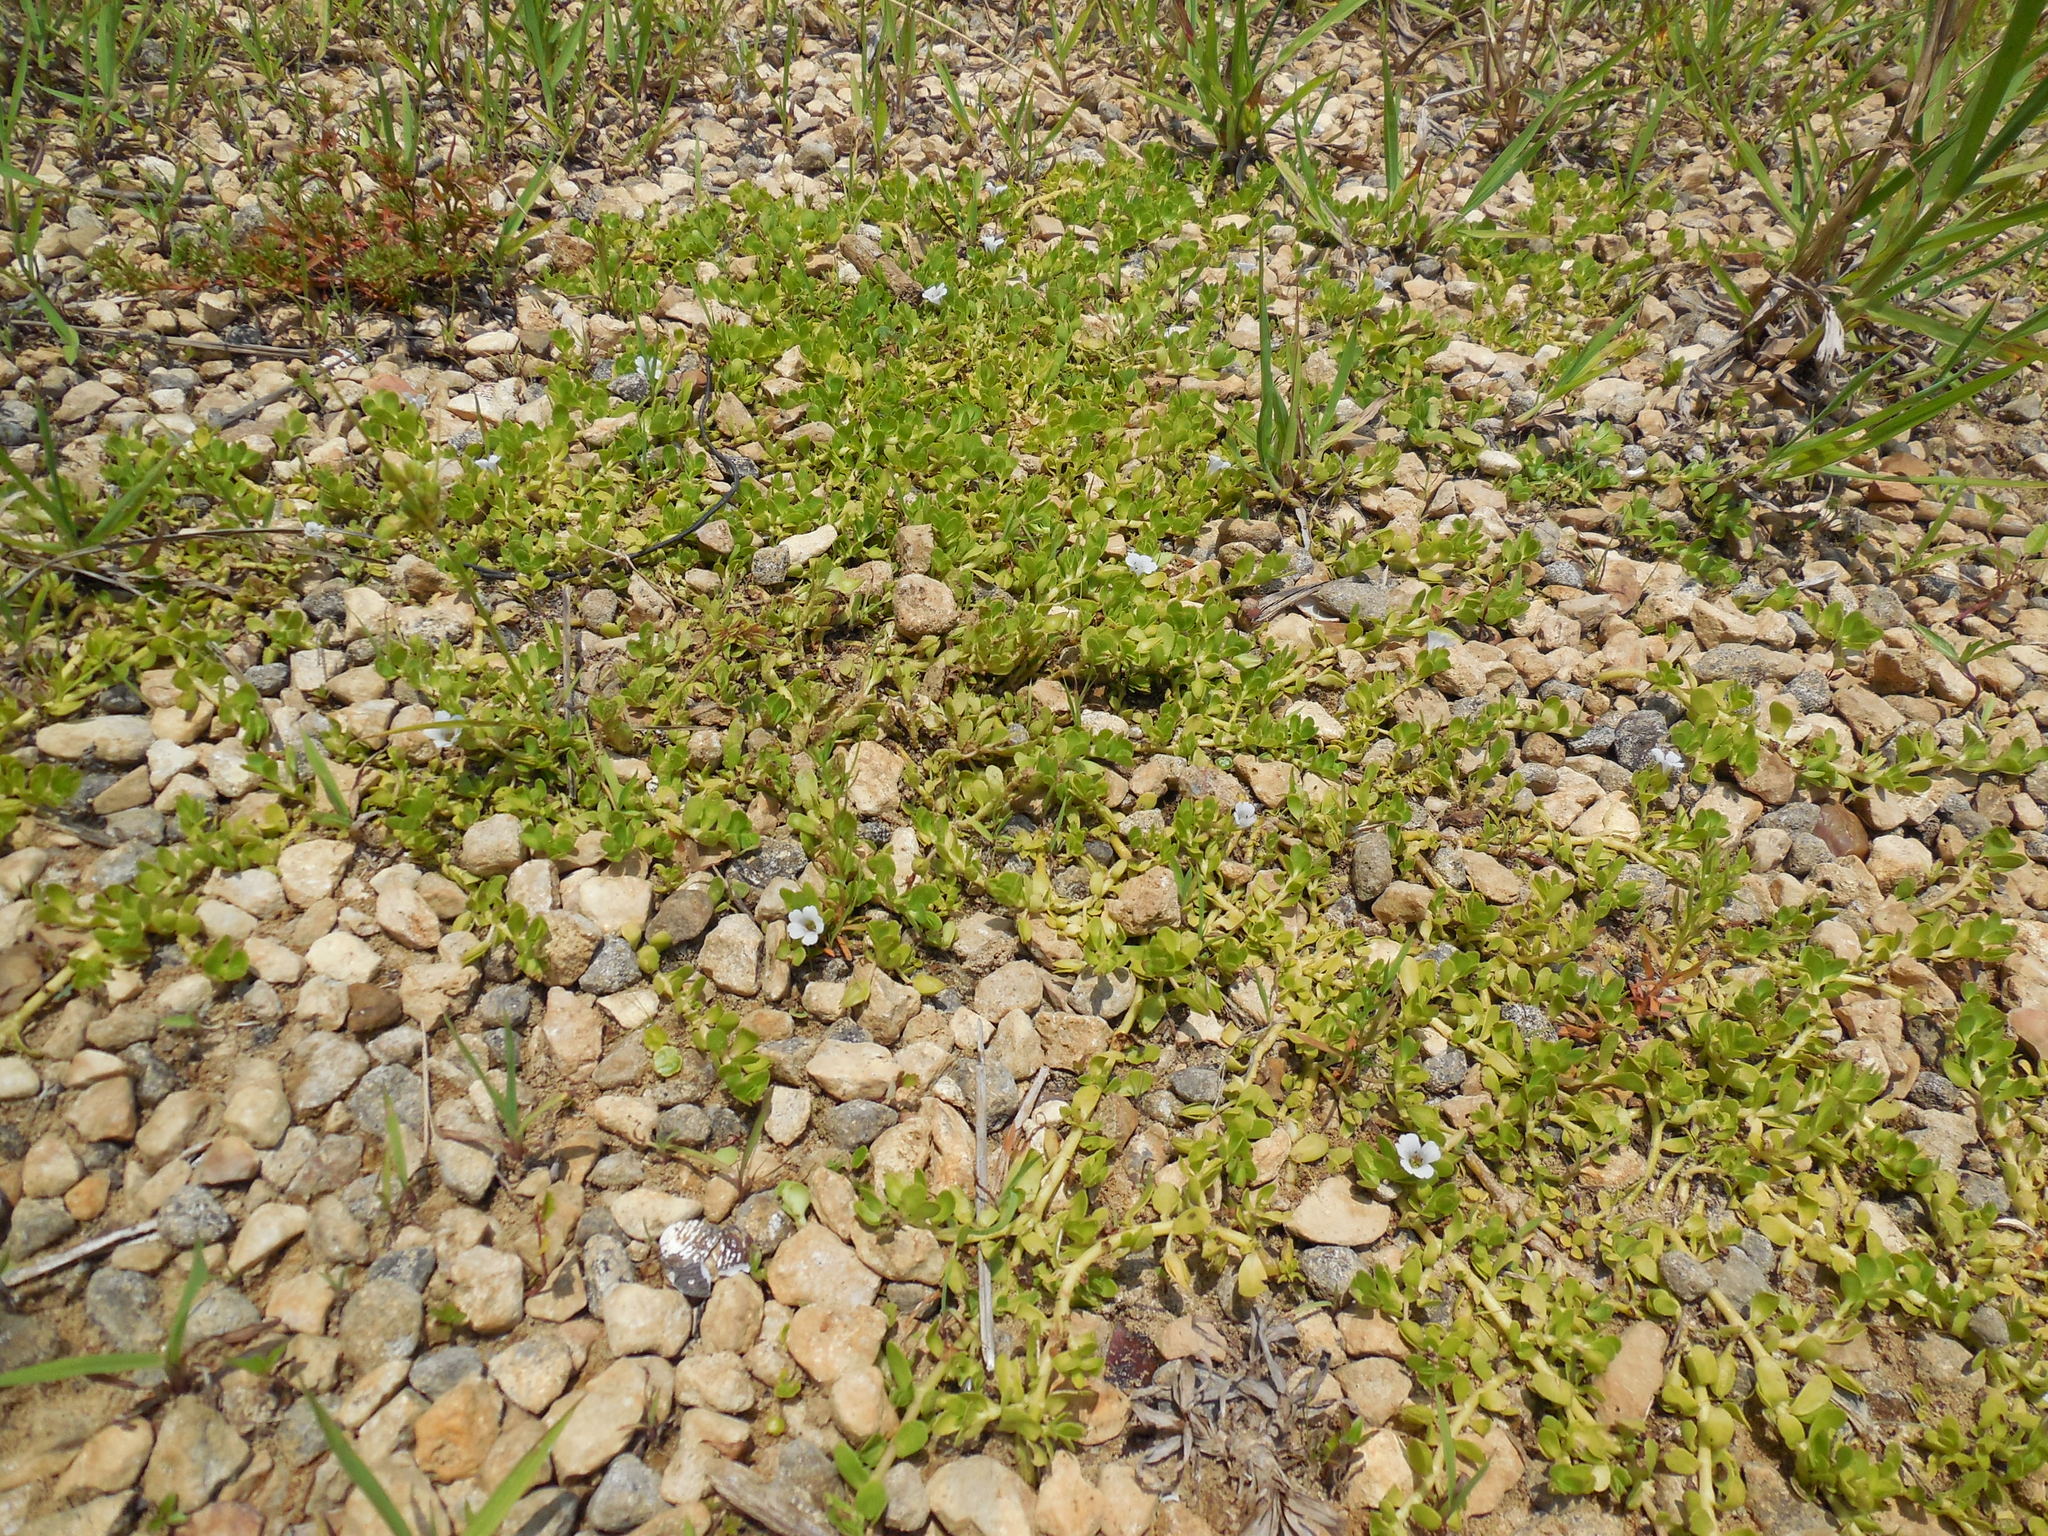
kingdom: Plantae
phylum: Tracheophyta
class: Magnoliopsida
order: Lamiales
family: Plantaginaceae
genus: Bacopa
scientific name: Bacopa monnieri
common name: Indian-pennywort
